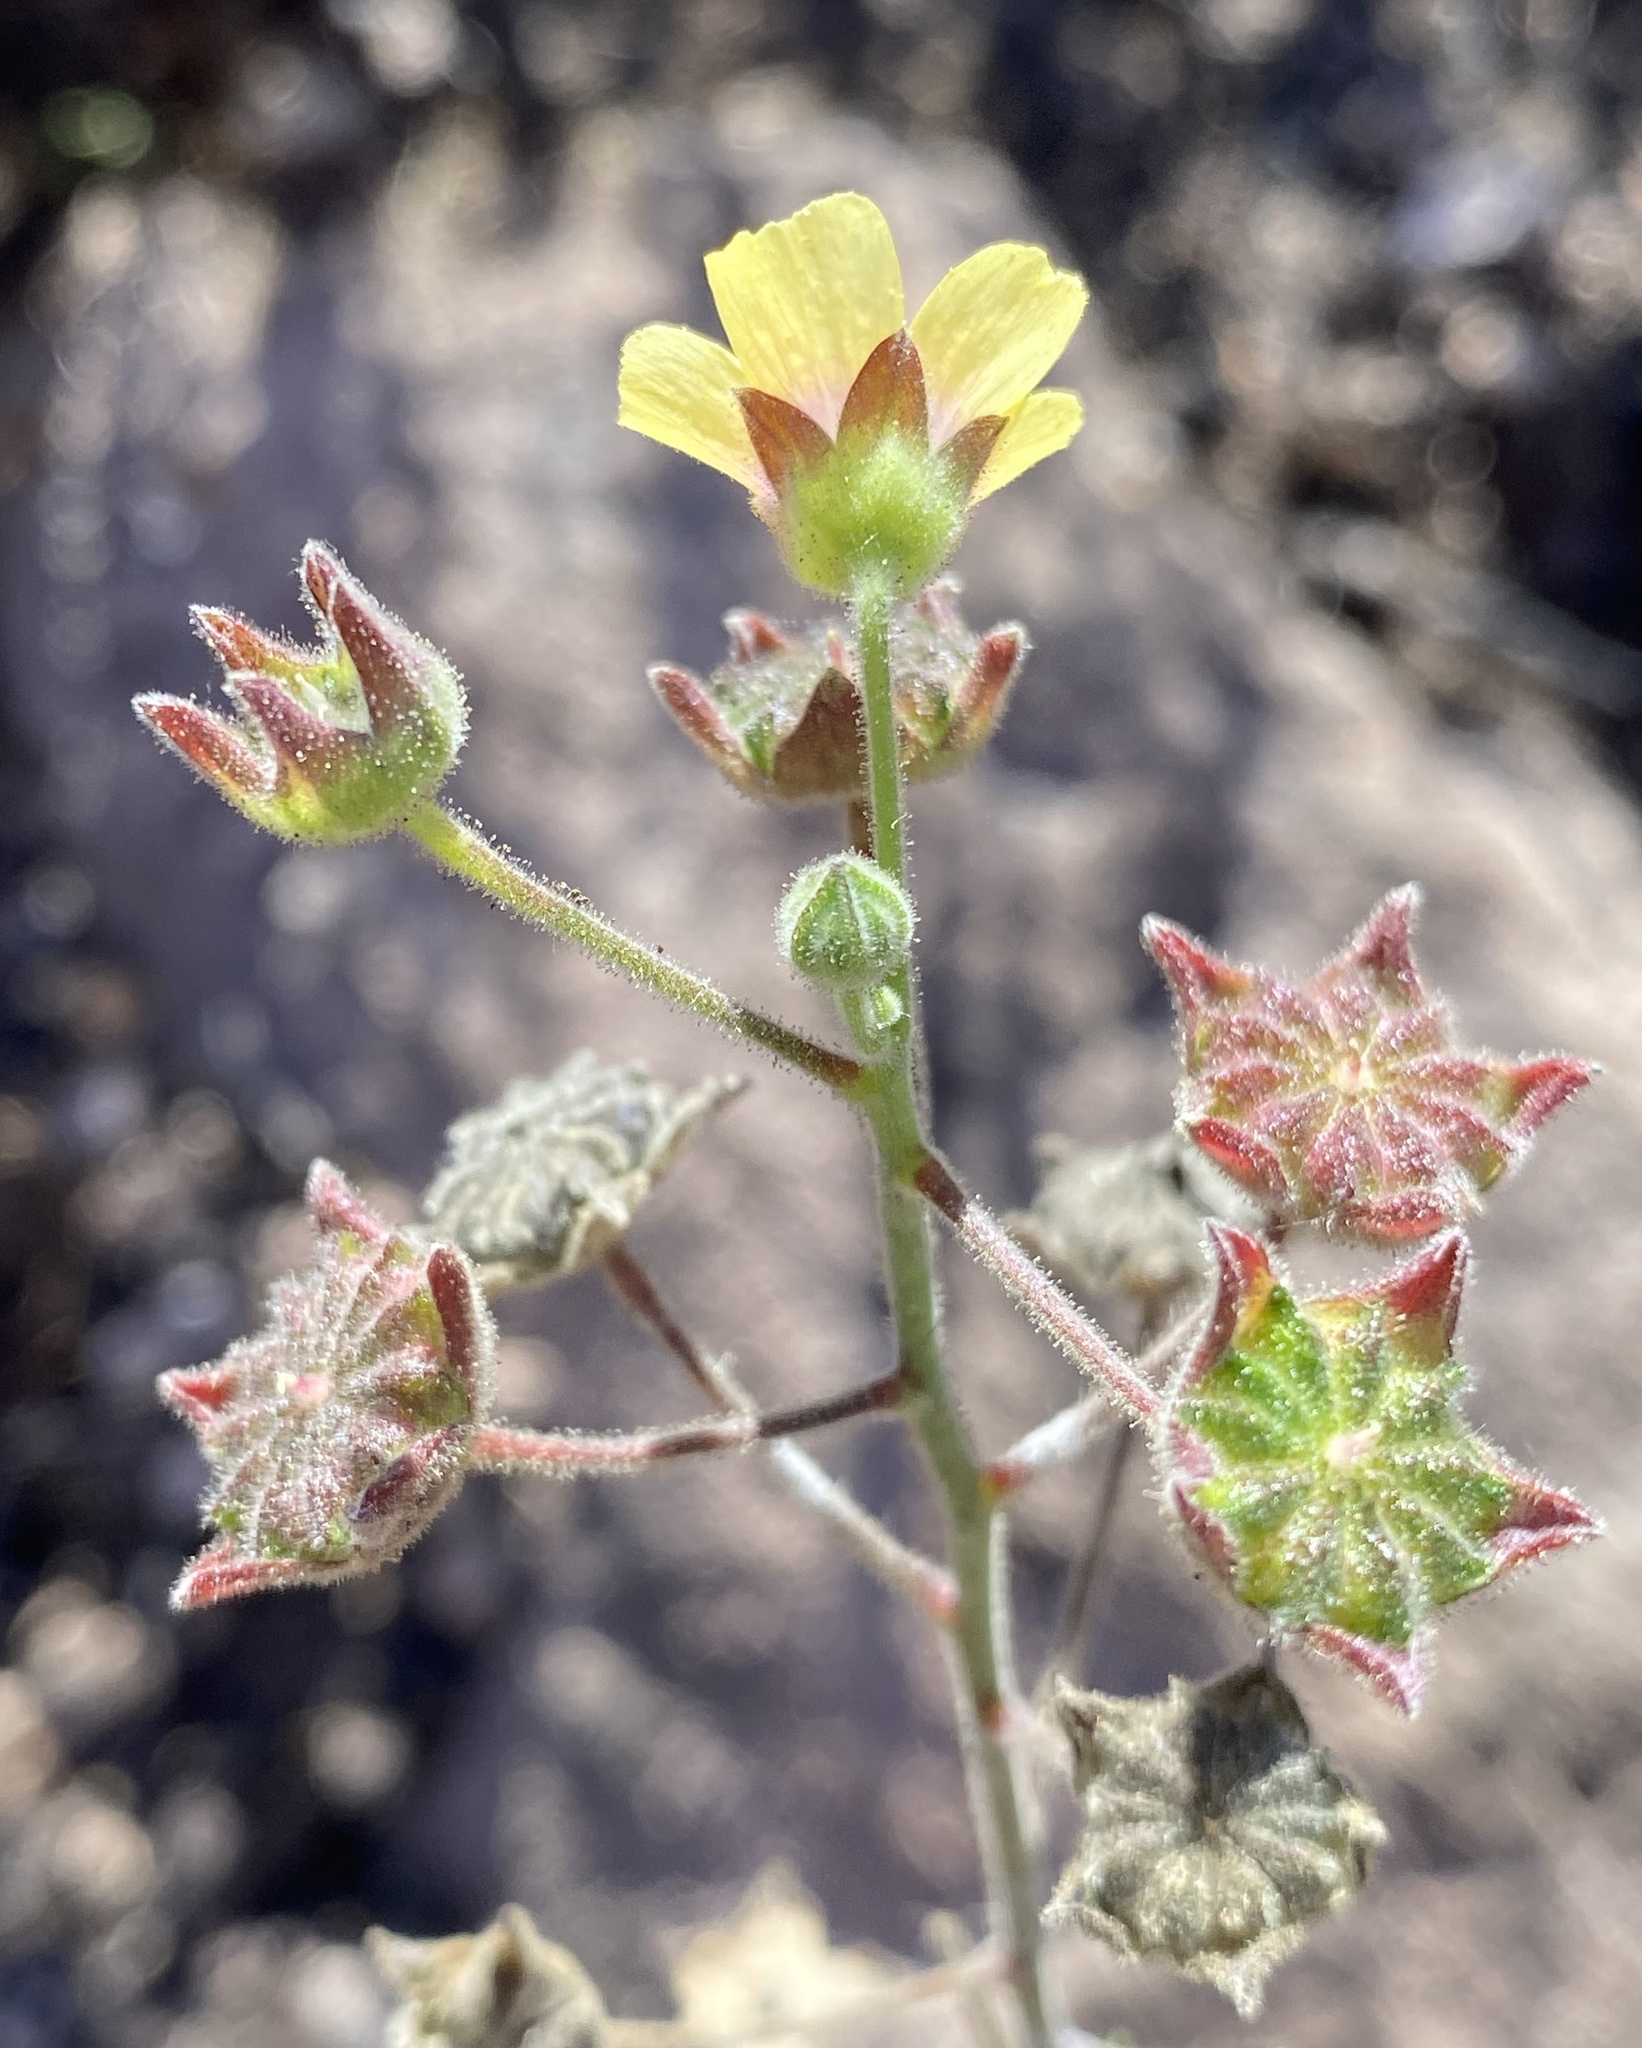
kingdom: Plantae
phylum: Tracheophyta
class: Magnoliopsida
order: Malvales
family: Malvaceae
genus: Anoda
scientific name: Anoda lanceolata
